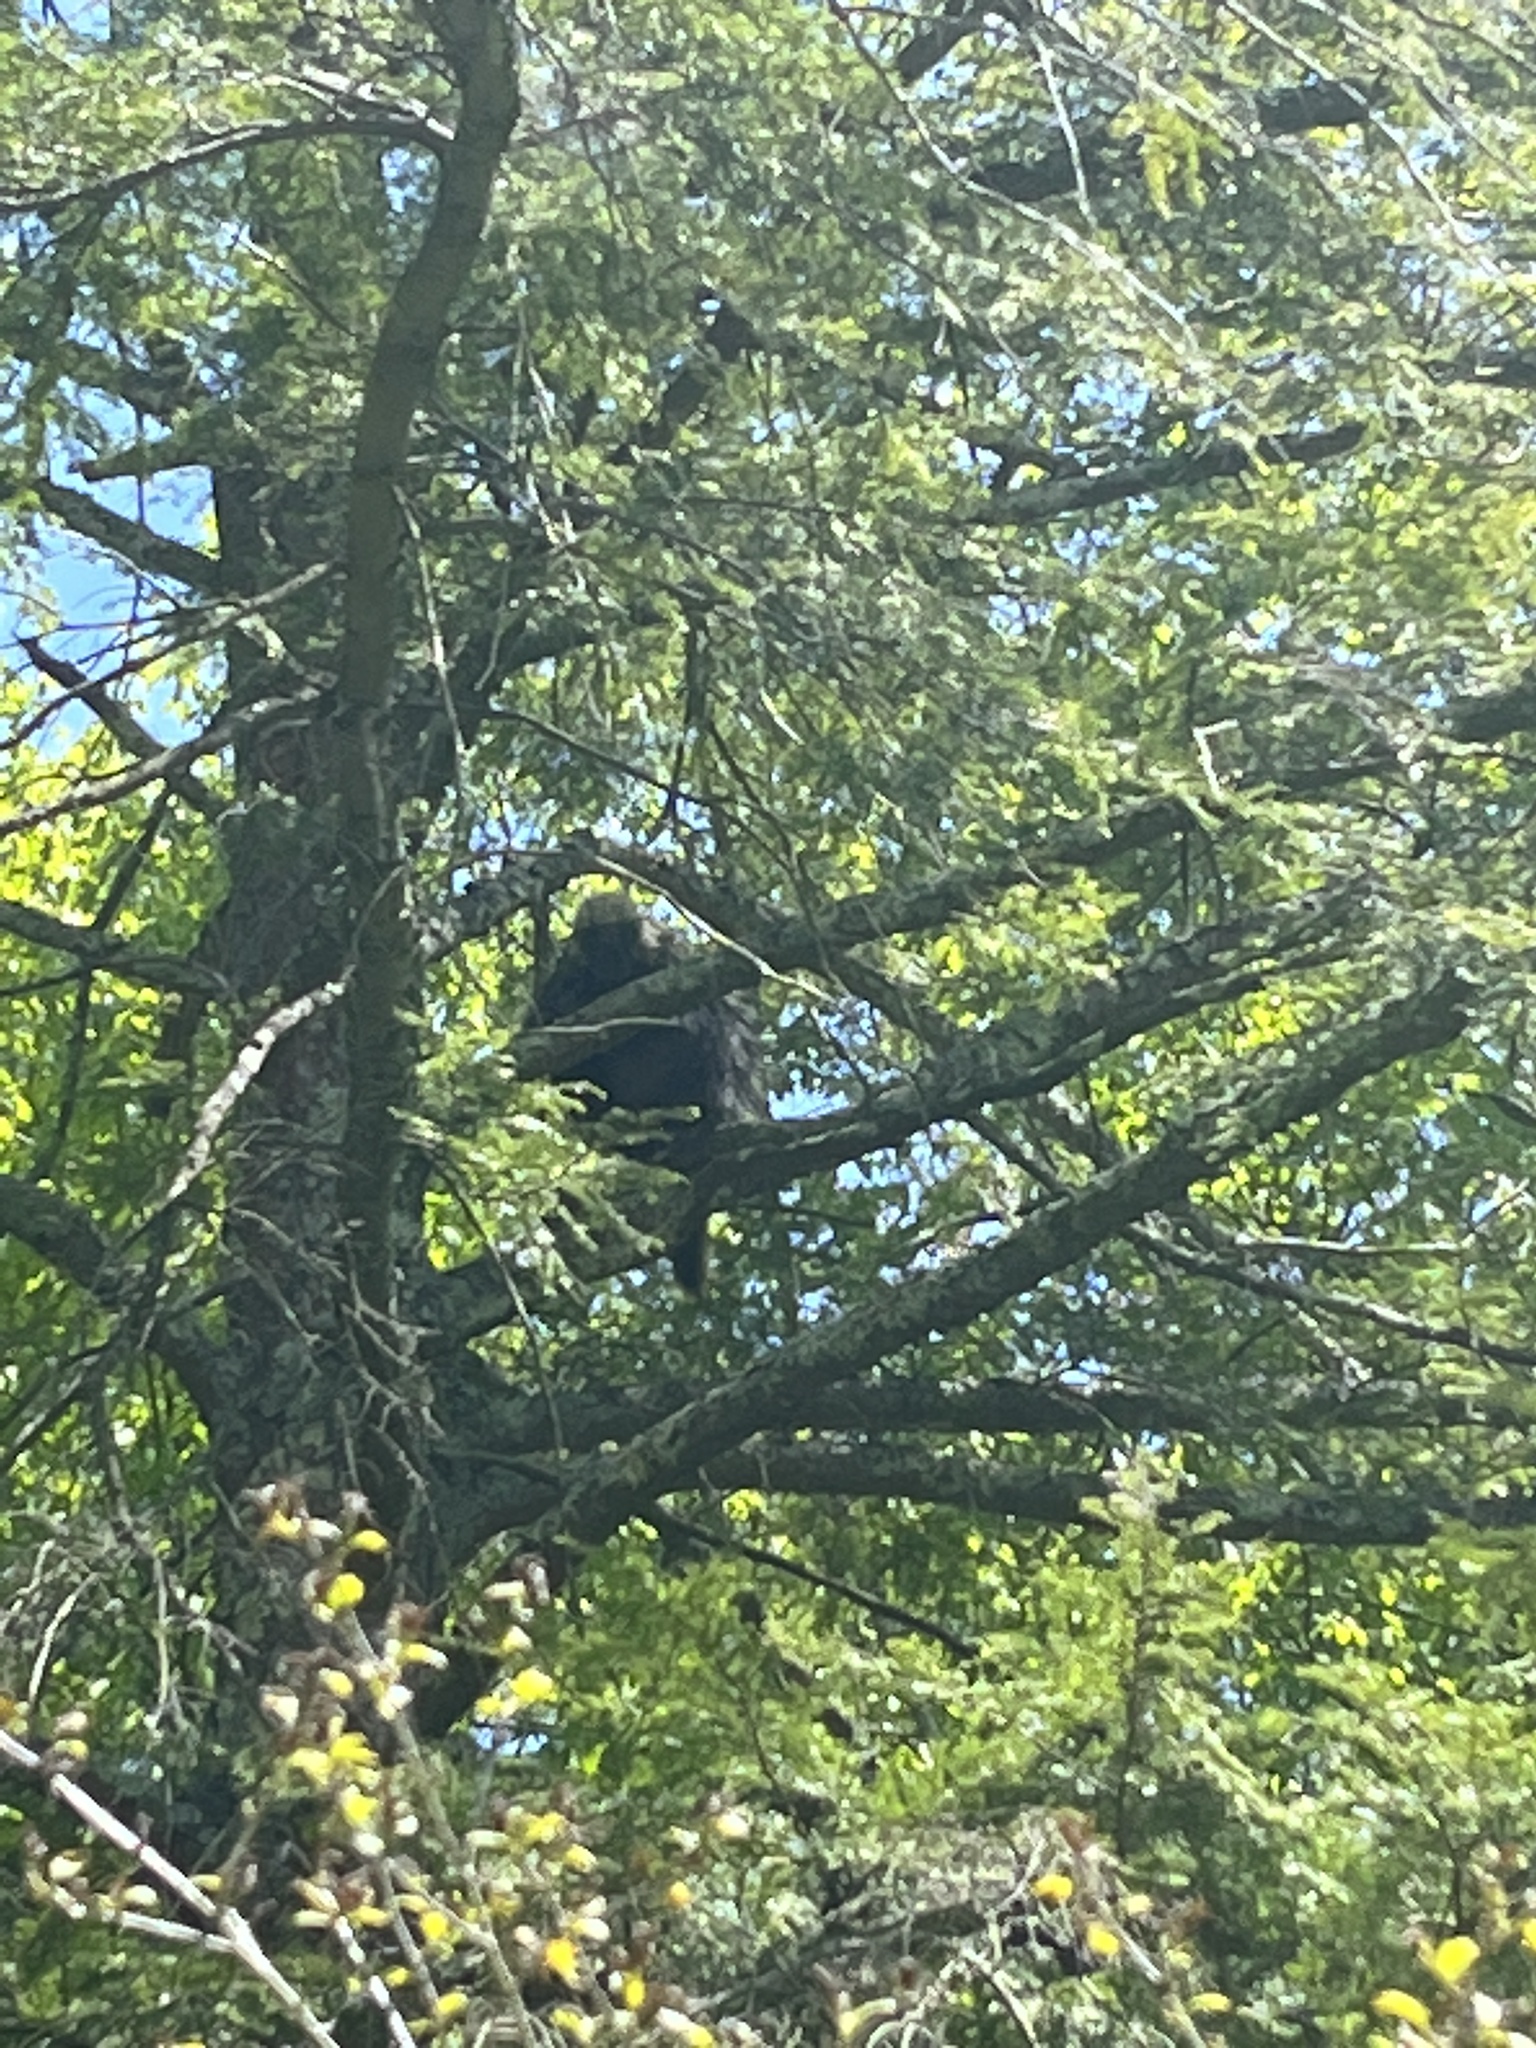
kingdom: Animalia
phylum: Chordata
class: Mammalia
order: Rodentia
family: Erethizontidae
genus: Erethizon
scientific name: Erethizon dorsatus
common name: North american porcupine
